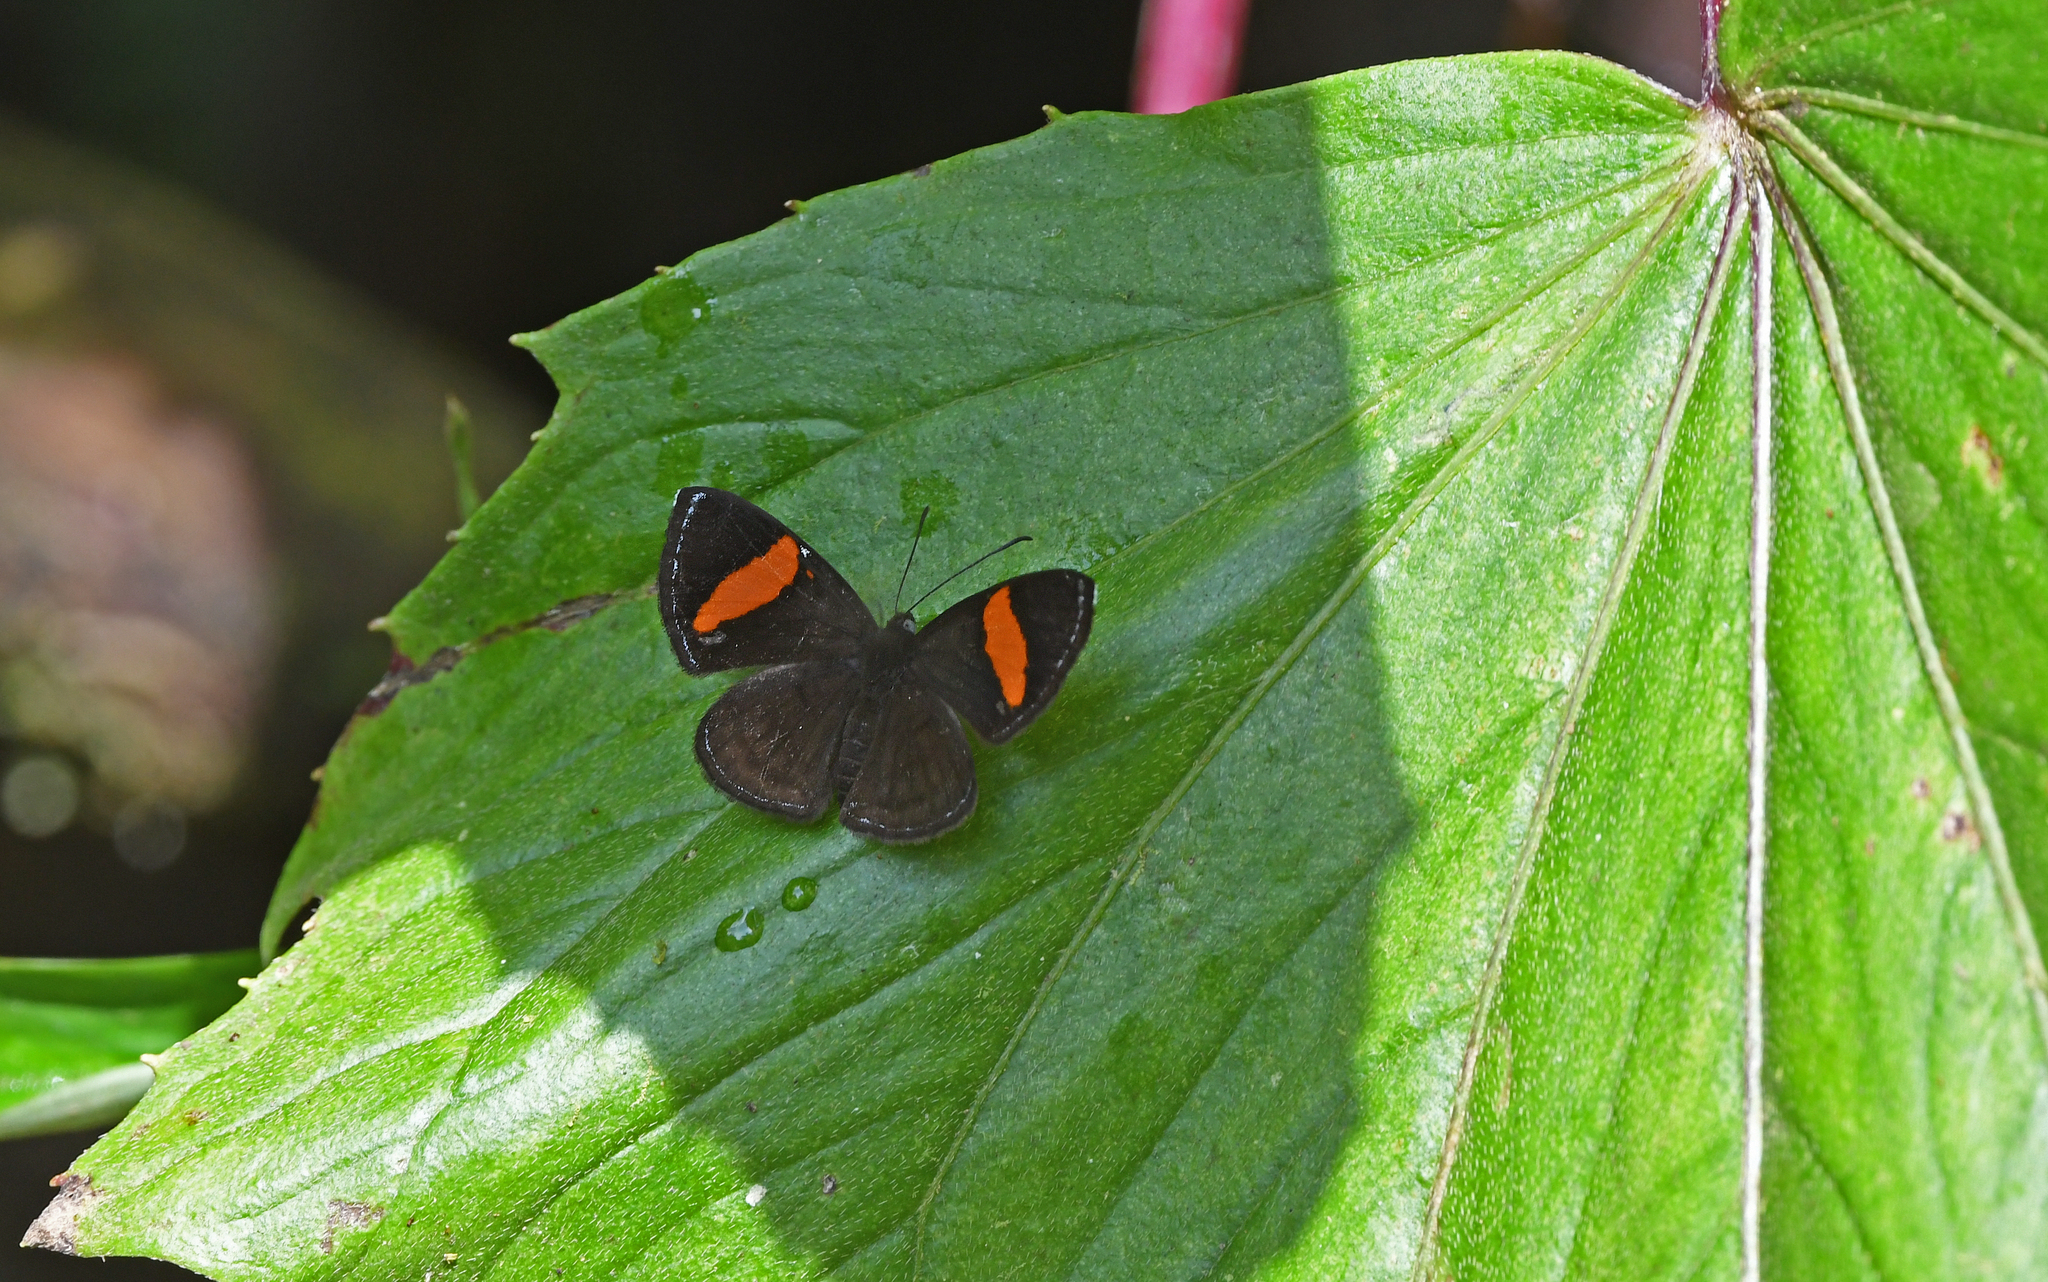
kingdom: Animalia
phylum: Arthropoda
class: Insecta
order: Lepidoptera
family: Riodinidae
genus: Crocozona
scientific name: Crocozona fasciata
